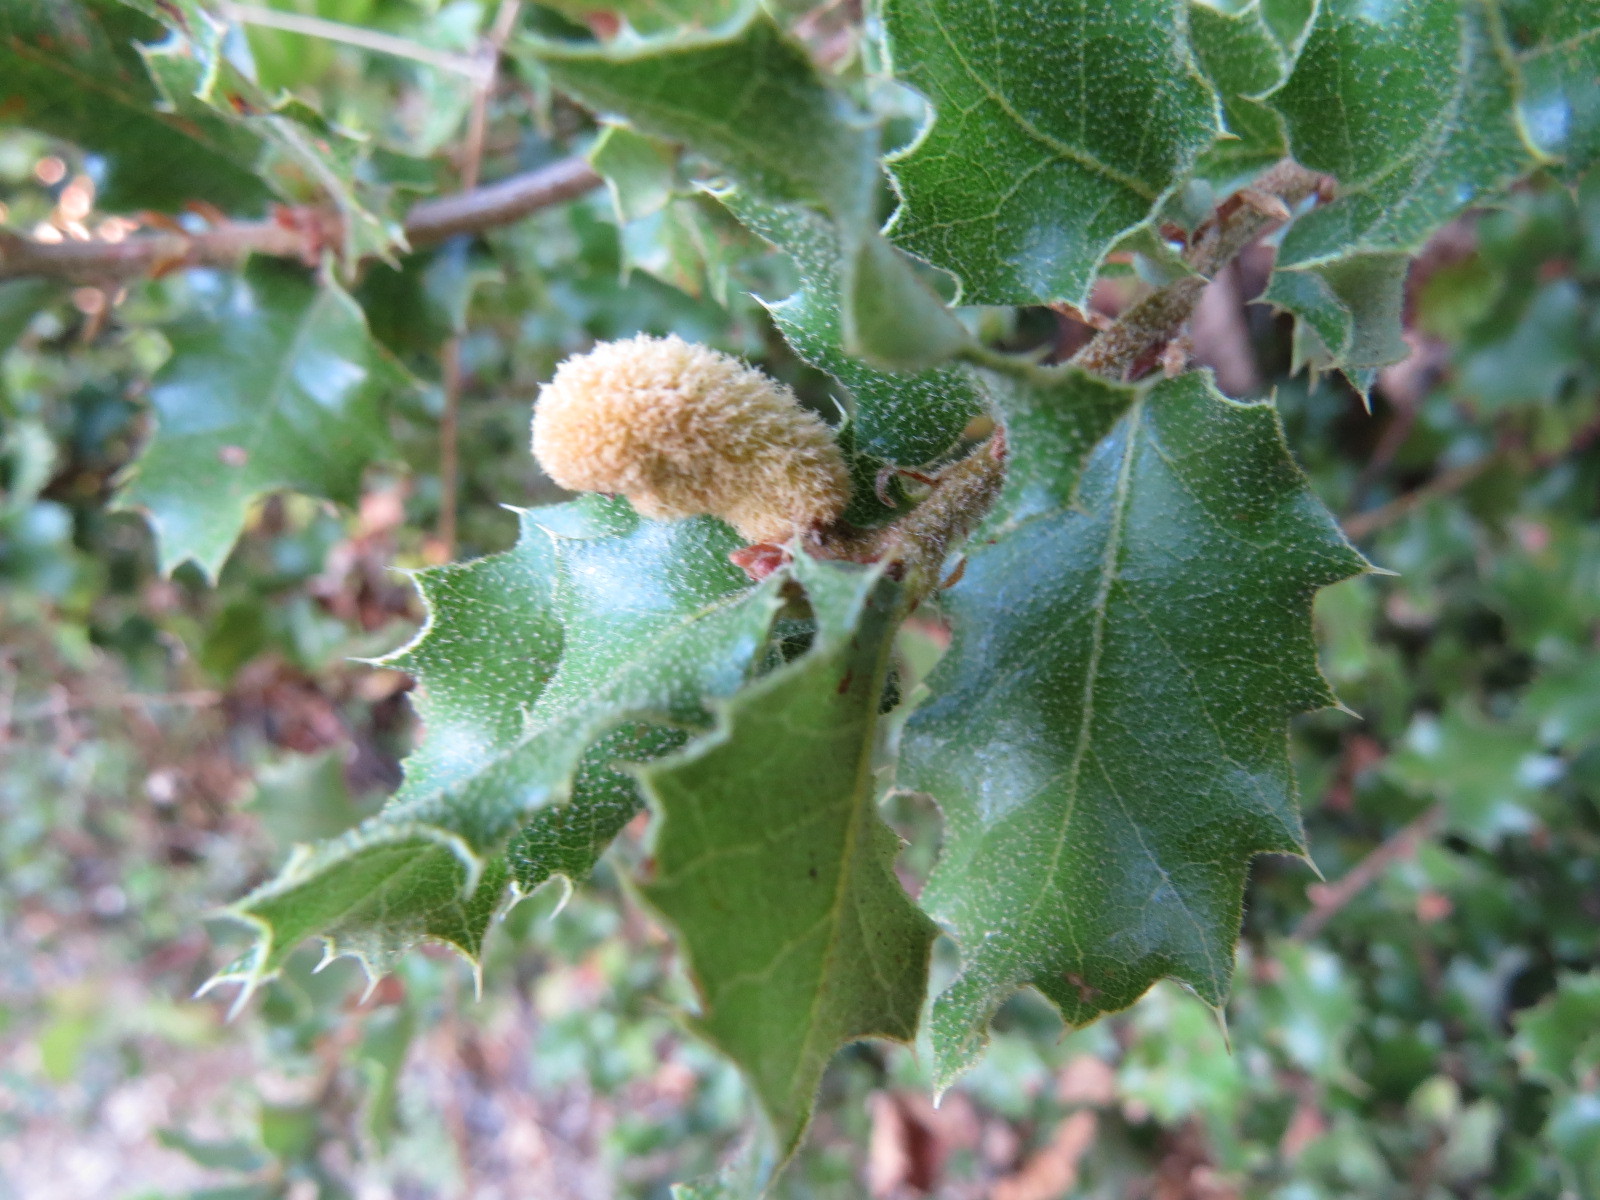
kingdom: Animalia
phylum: Arthropoda
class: Insecta
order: Hymenoptera
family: Cynipidae
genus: Heteroecus
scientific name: Heteroecus
